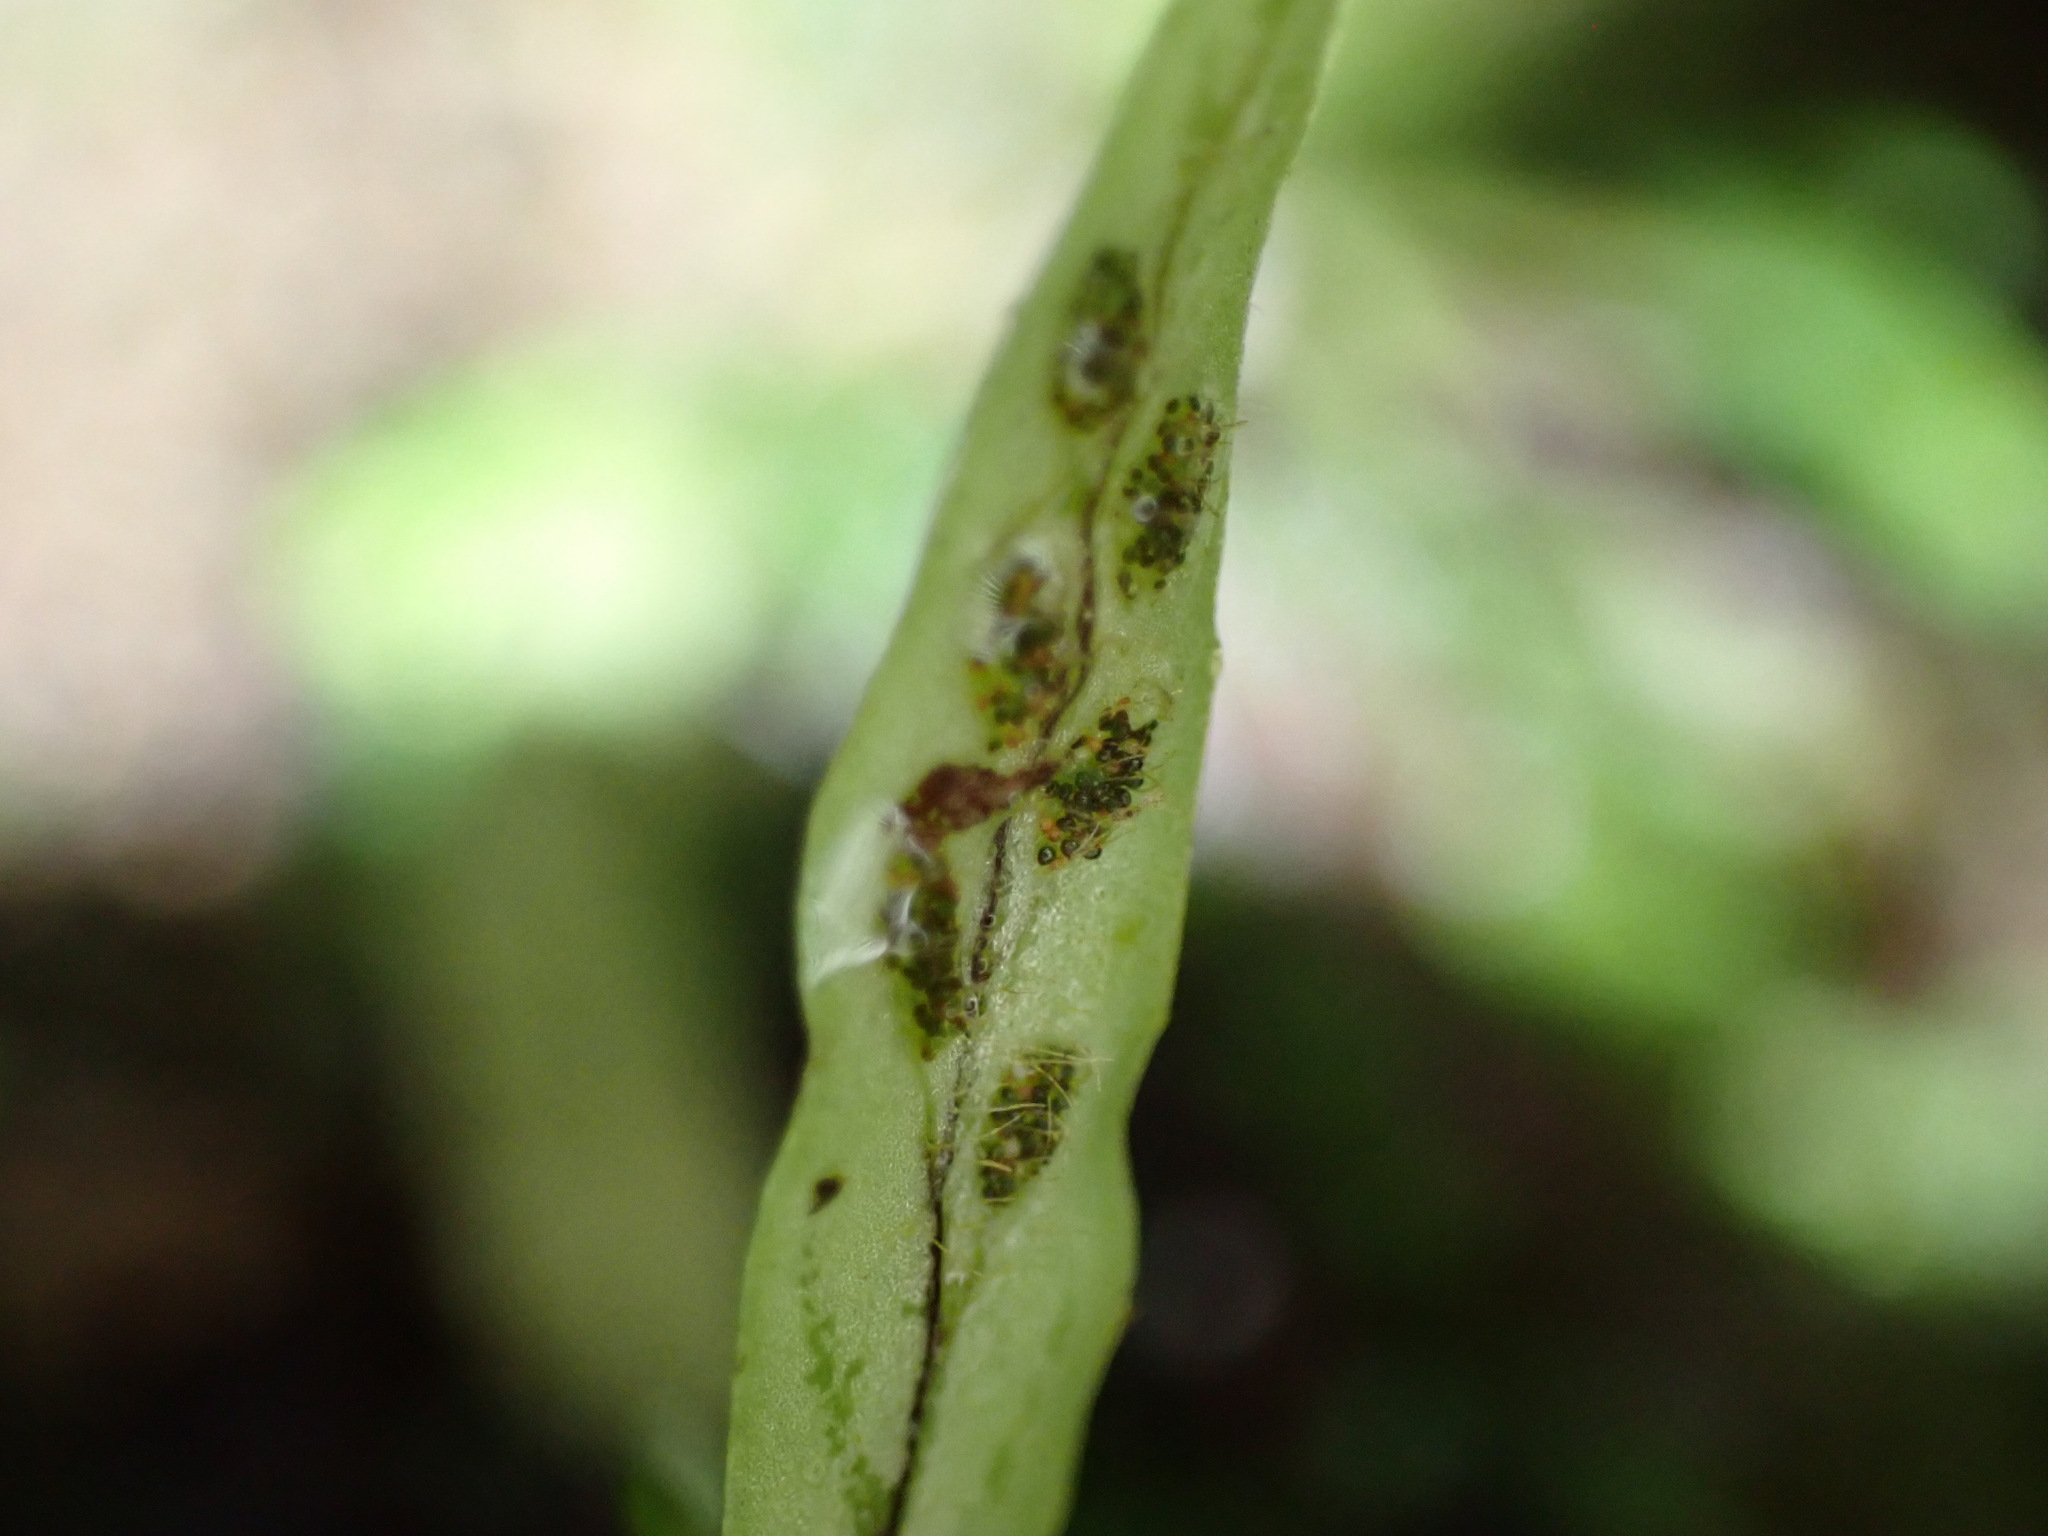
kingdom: Plantae
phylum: Tracheophyta
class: Polypodiopsida
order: Polypodiales
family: Polypodiaceae
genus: Notogrammitis
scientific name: Notogrammitis ciliata
